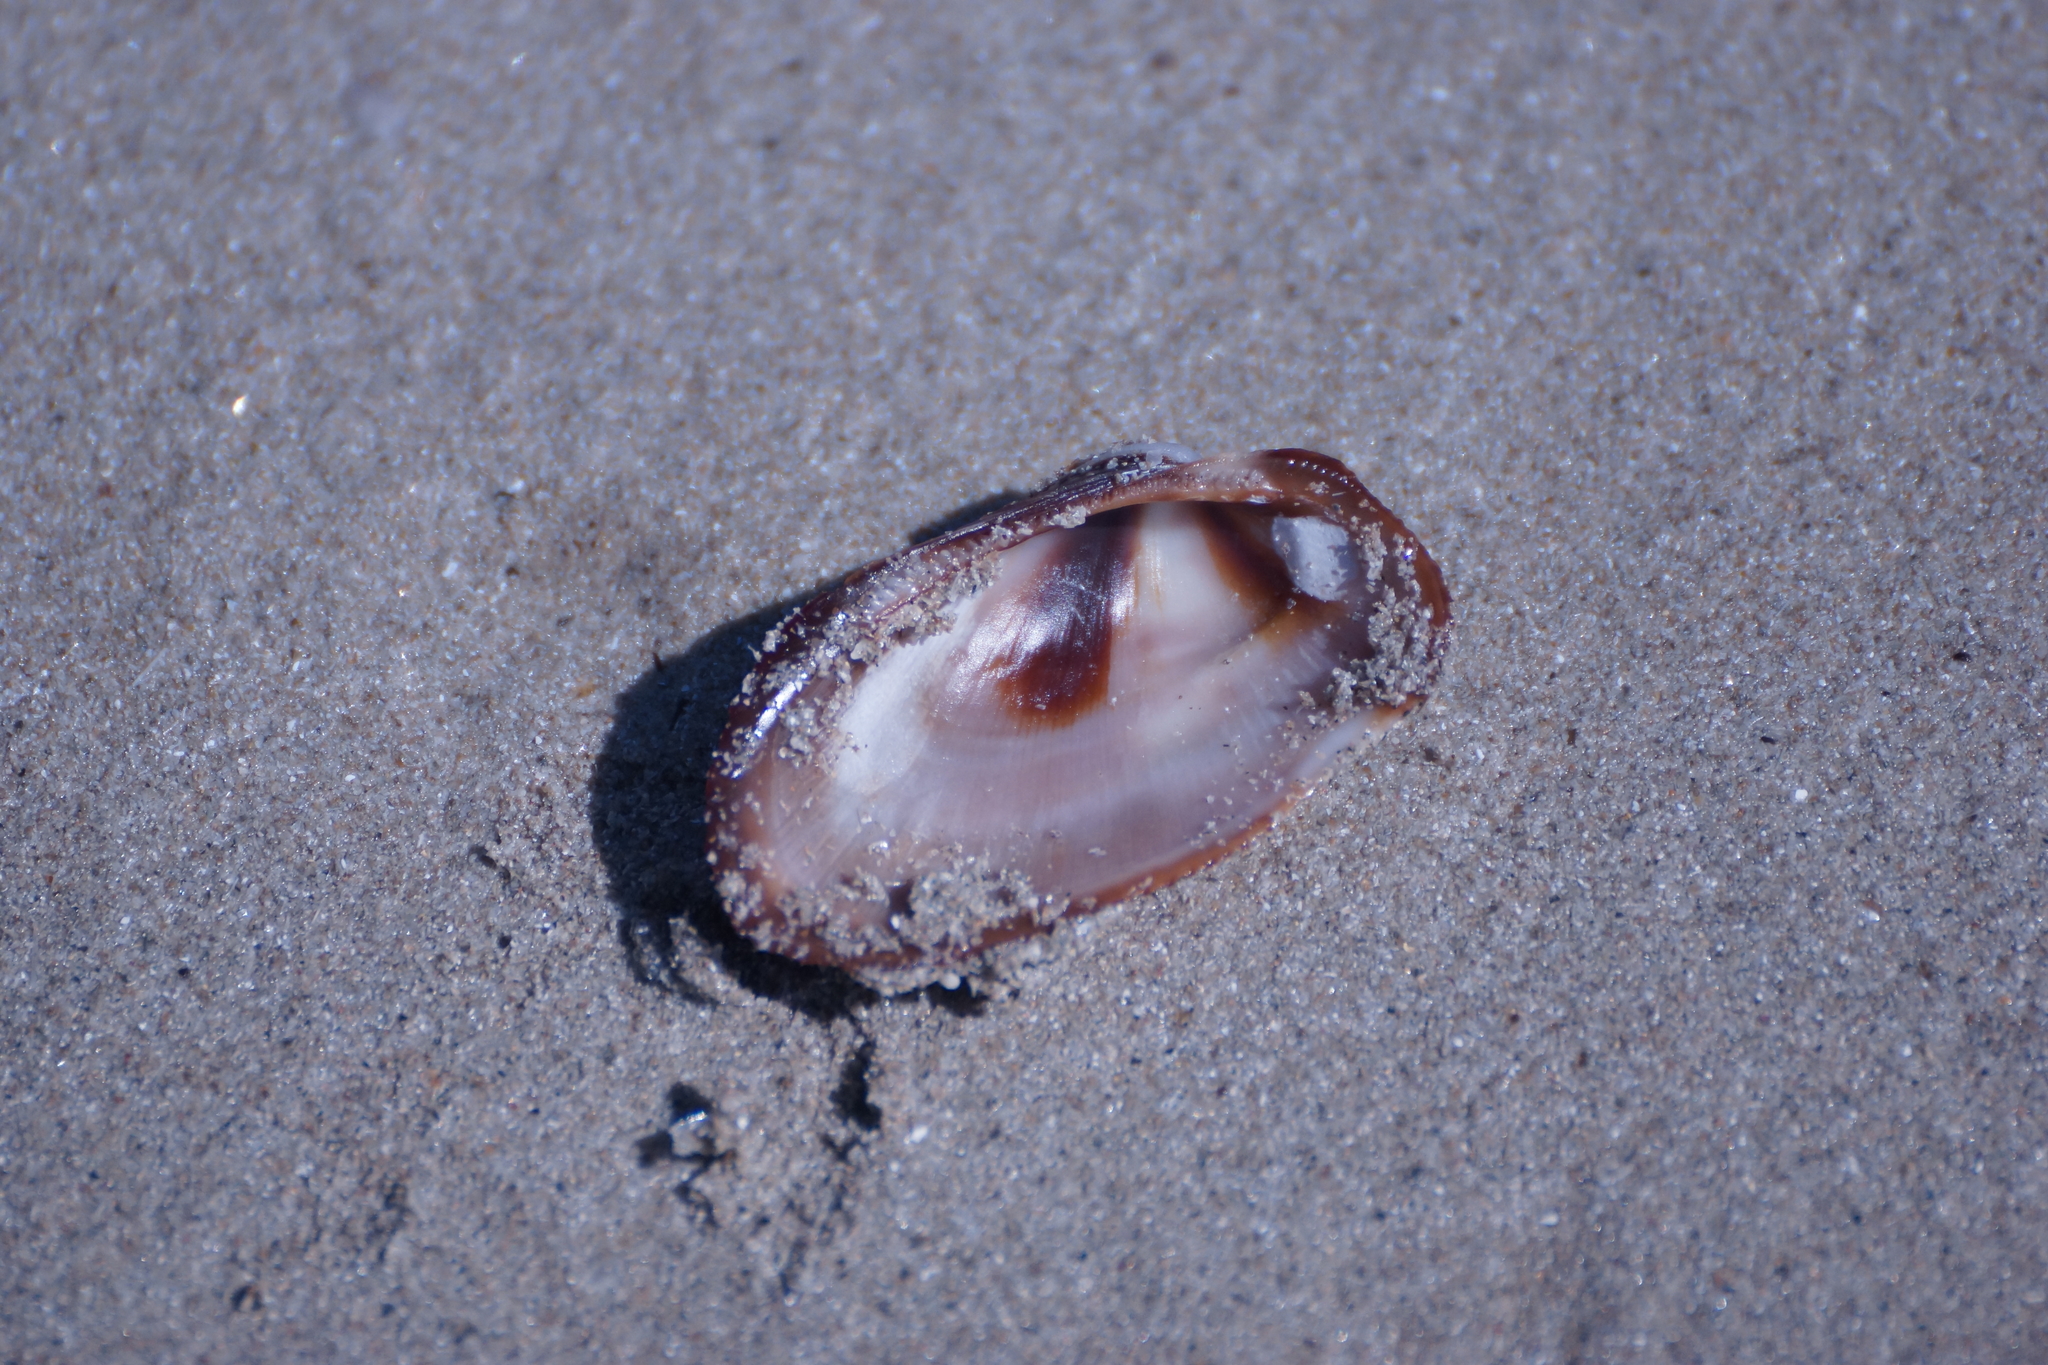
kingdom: Animalia
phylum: Mollusca
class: Bivalvia
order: Arcida
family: Arcidae
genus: Barbatia
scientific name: Barbatia amygdalumtostum
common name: Burnt-almond ark
